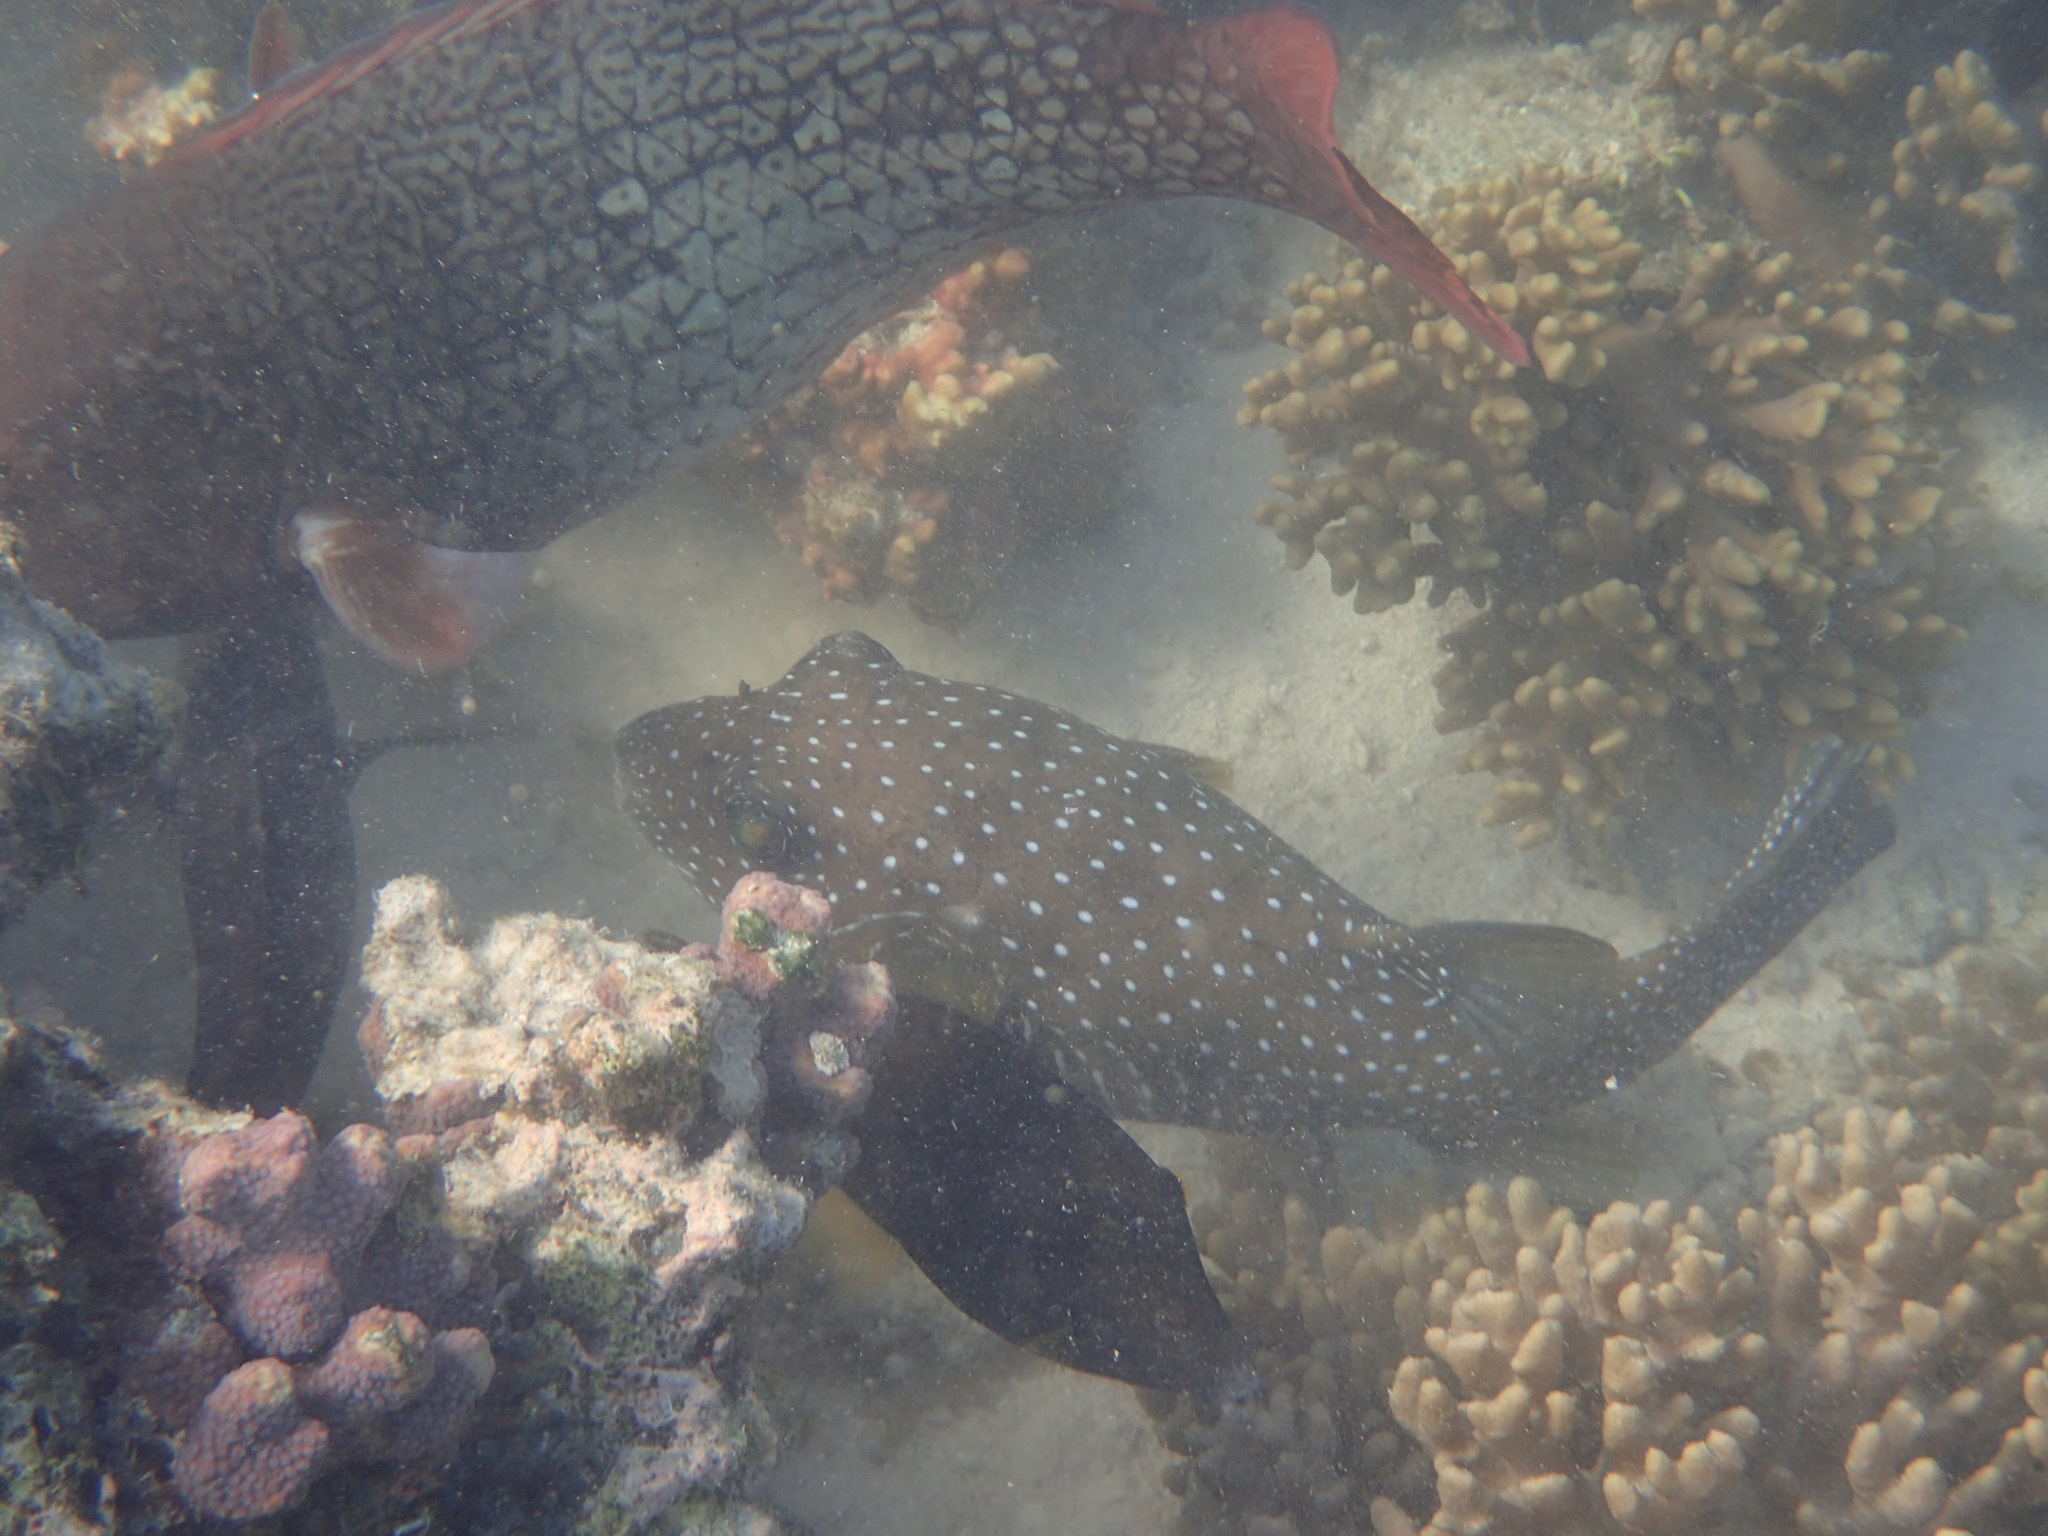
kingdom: Animalia
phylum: Chordata
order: Tetraodontiformes
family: Tetraodontidae
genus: Arothron
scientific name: Arothron hispidus
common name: Stripebelly puffer
